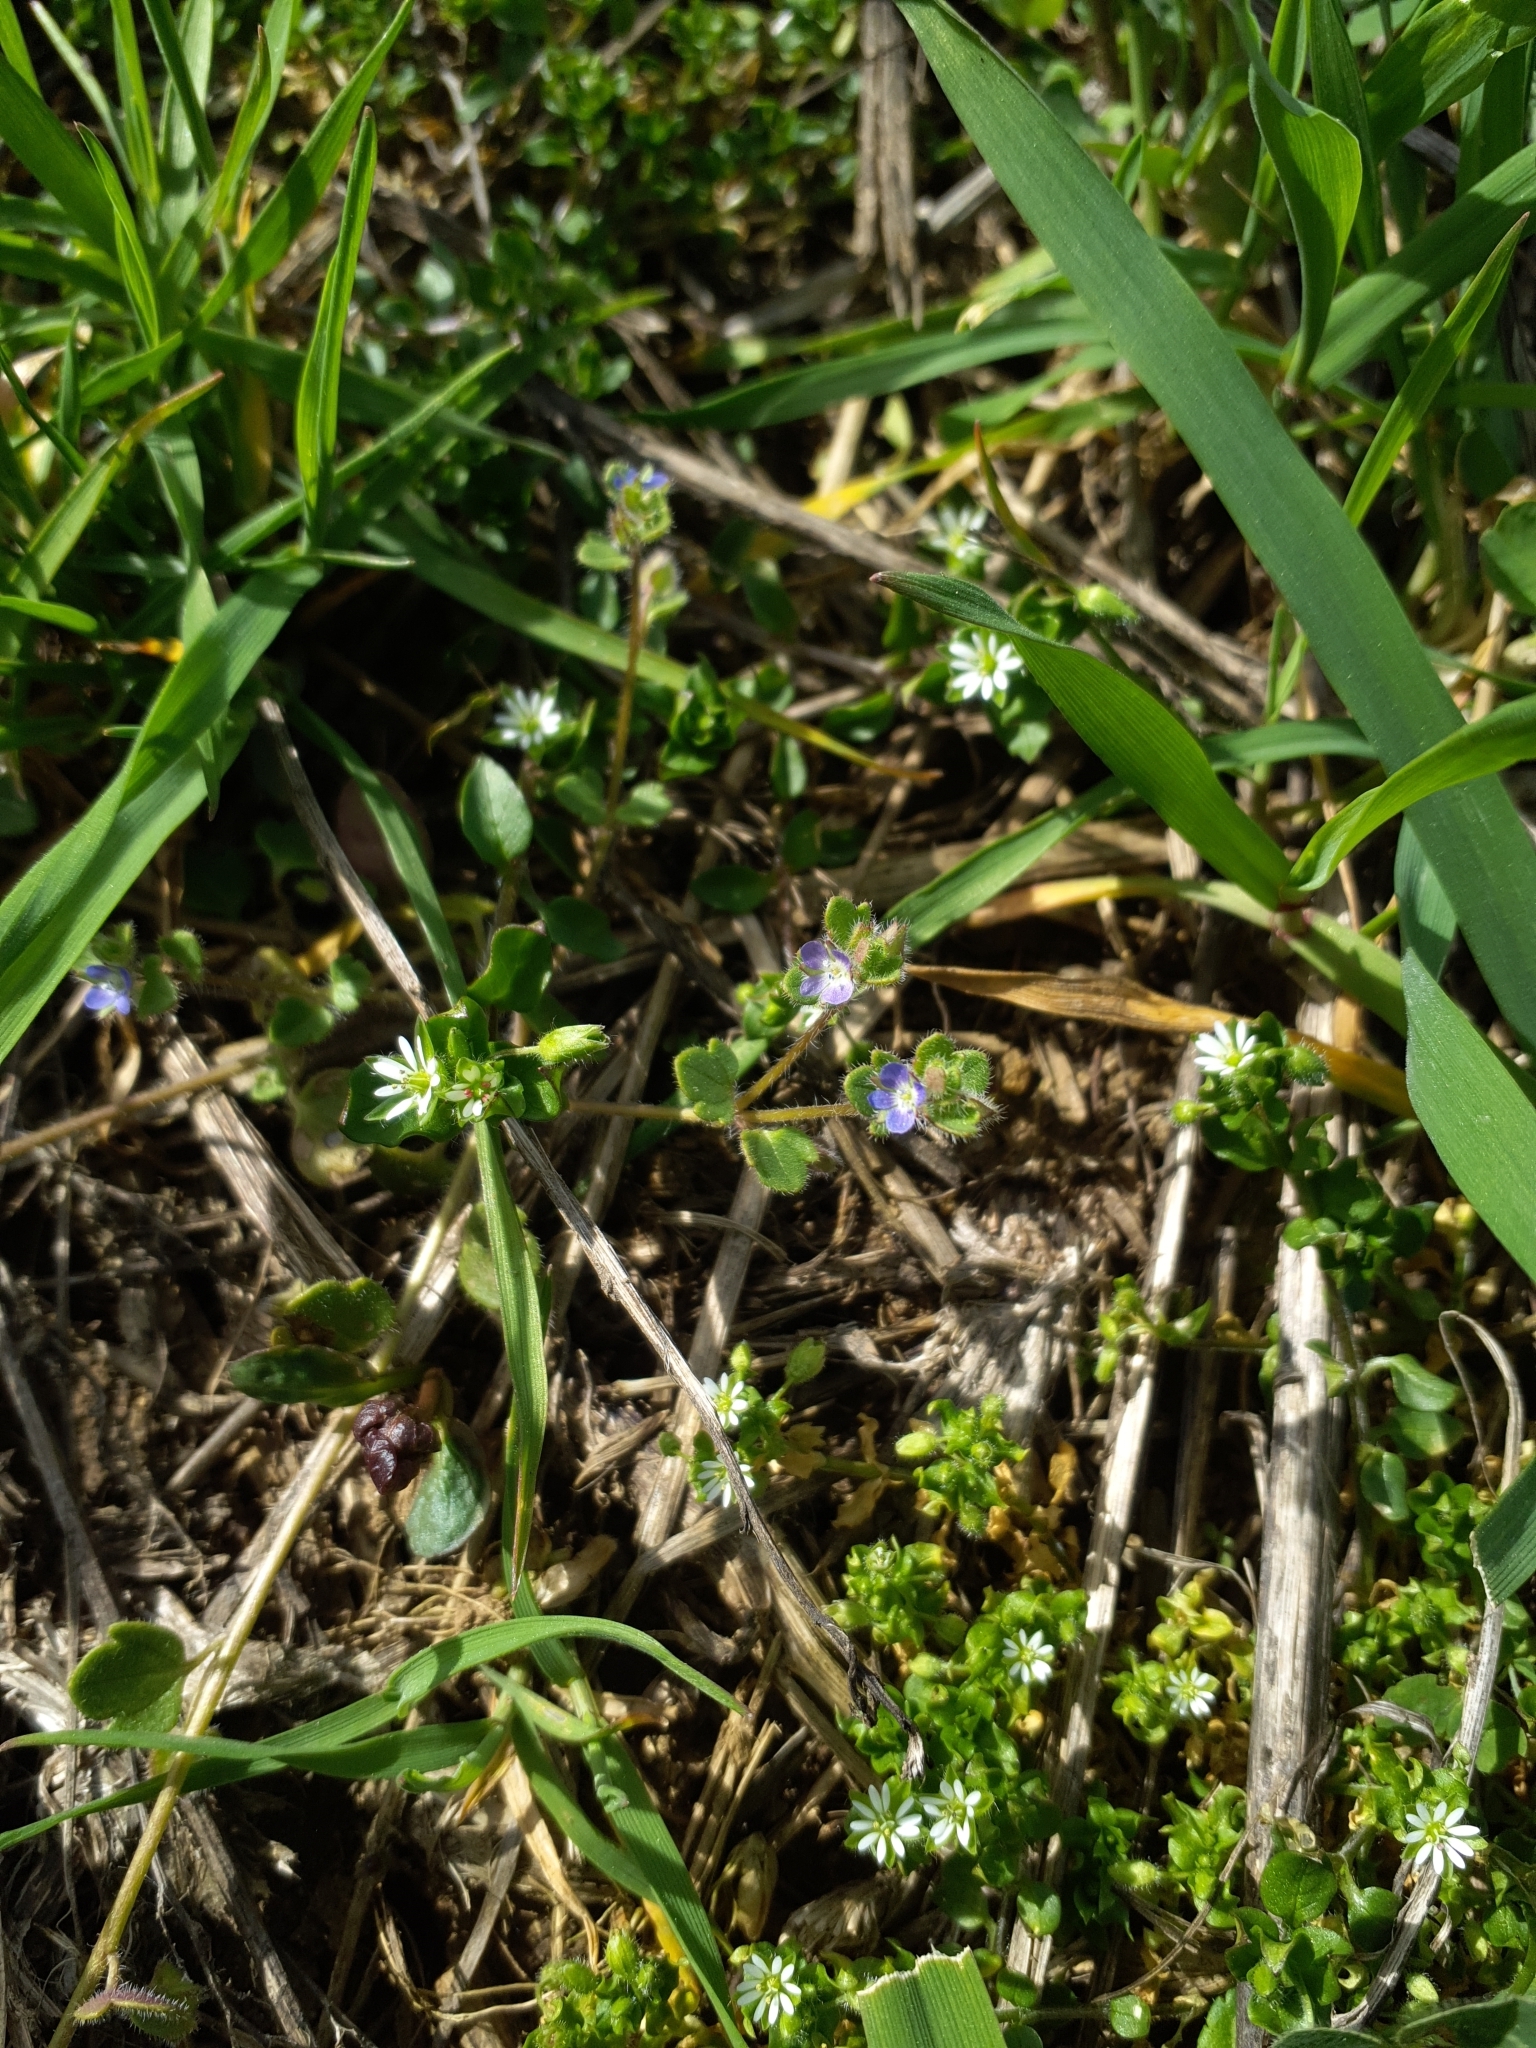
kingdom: Plantae
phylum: Tracheophyta
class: Magnoliopsida
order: Lamiales
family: Plantaginaceae
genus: Veronica
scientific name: Veronica triloba
